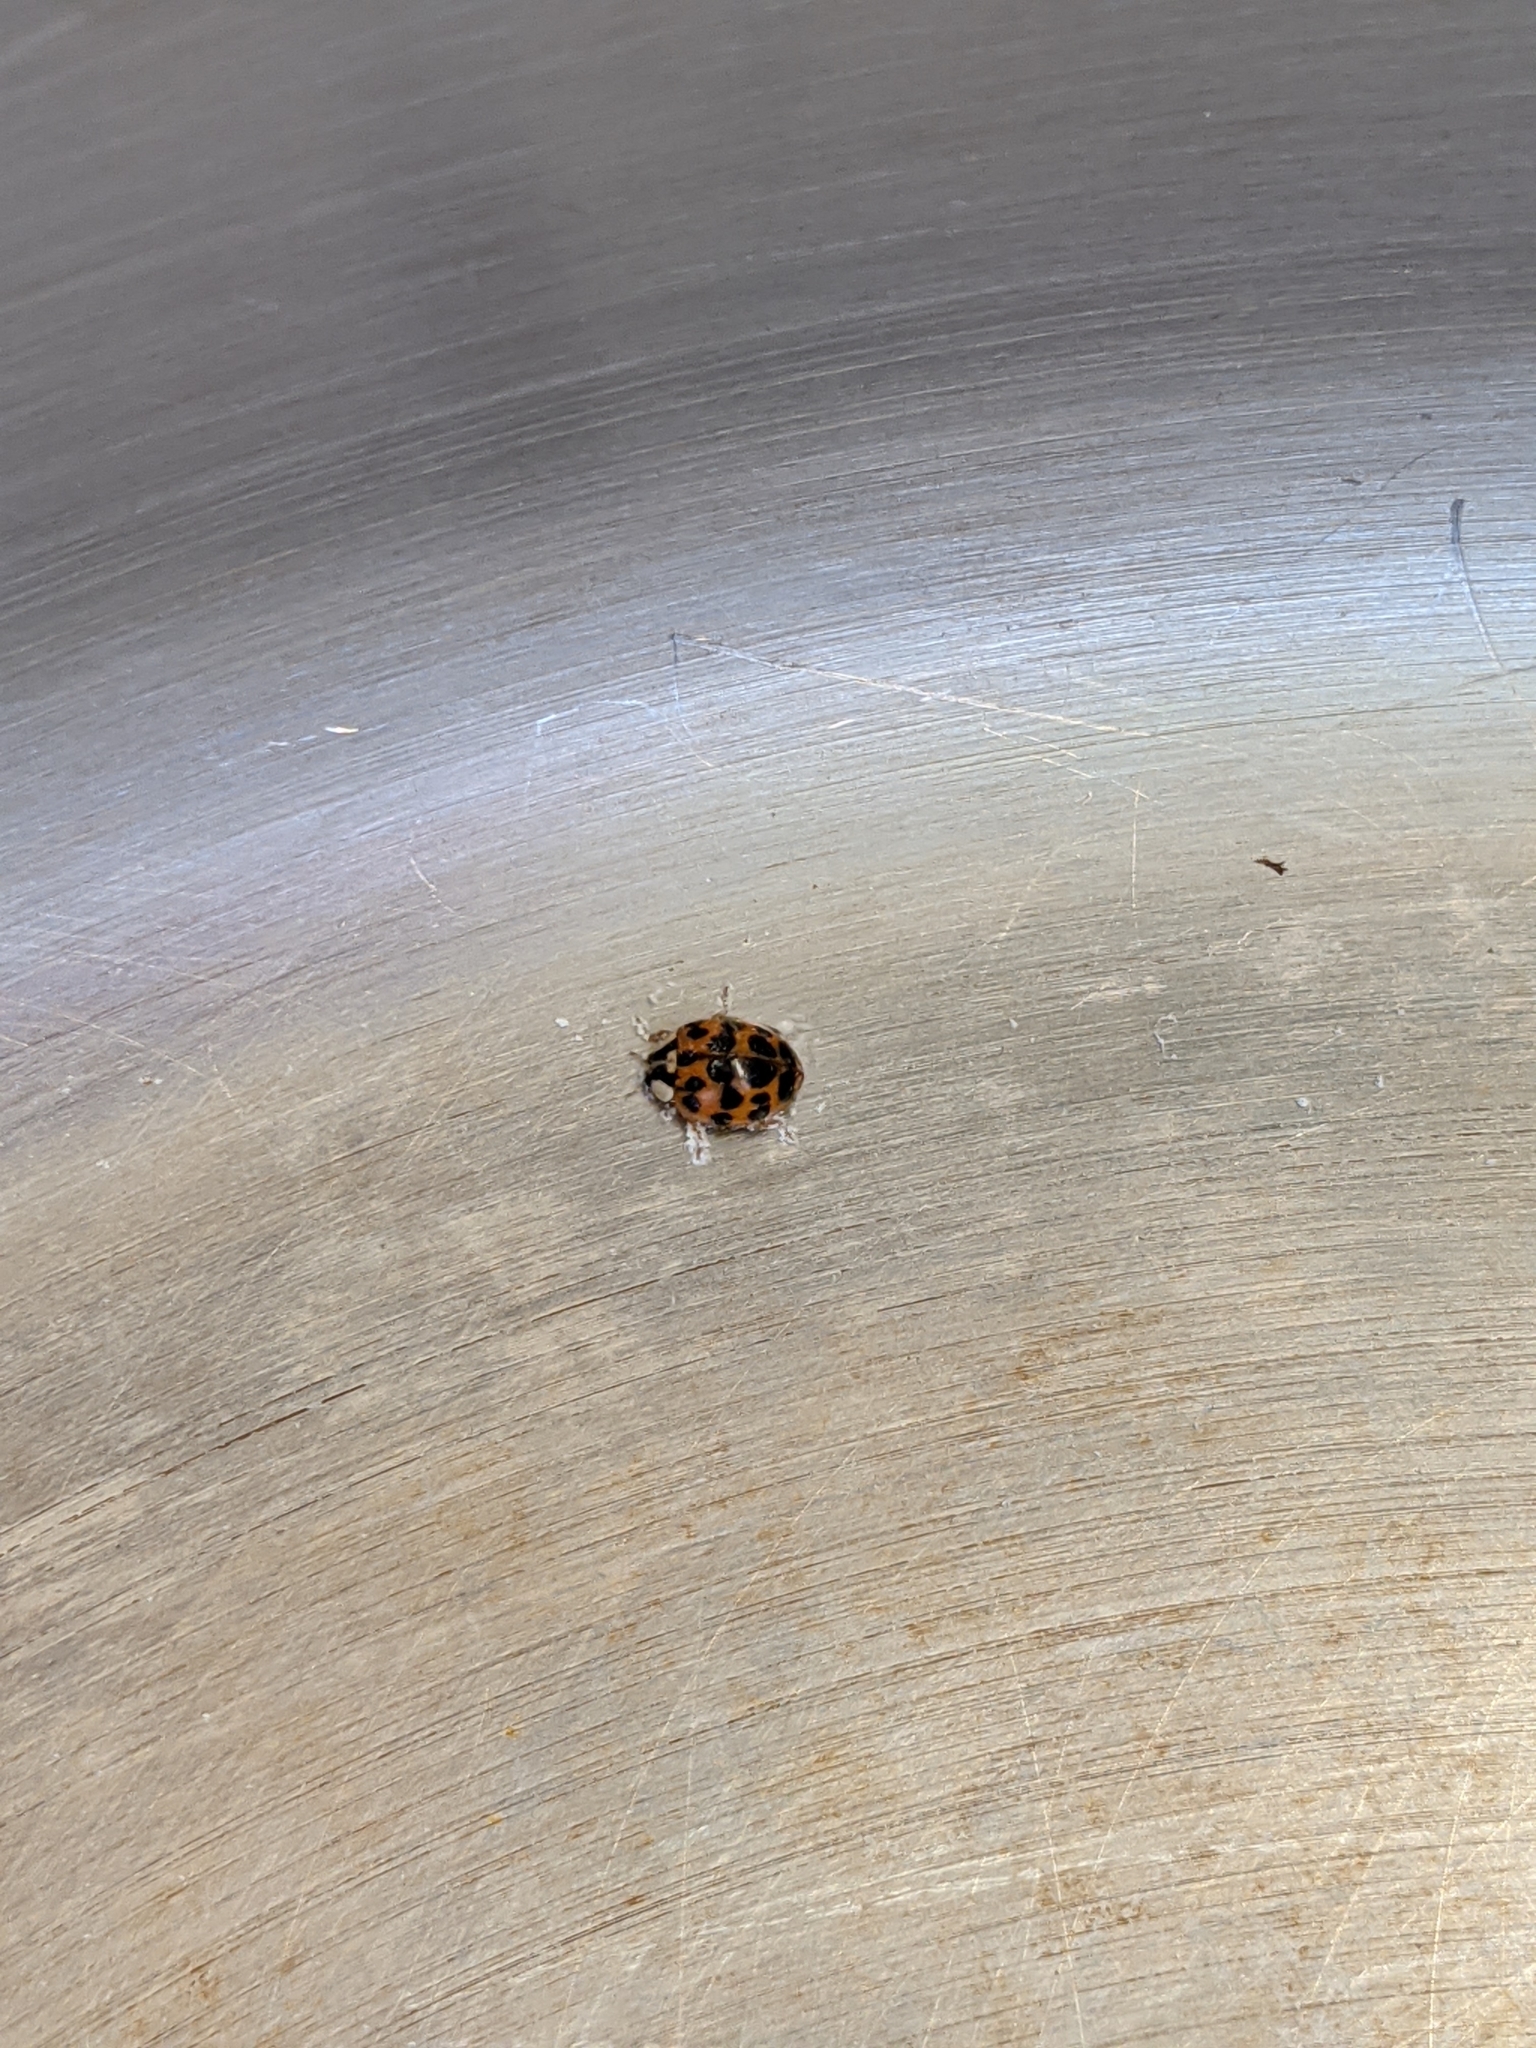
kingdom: Animalia
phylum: Arthropoda
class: Insecta
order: Coleoptera
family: Coccinellidae
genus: Harmonia
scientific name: Harmonia axyridis
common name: Harlequin ladybird
